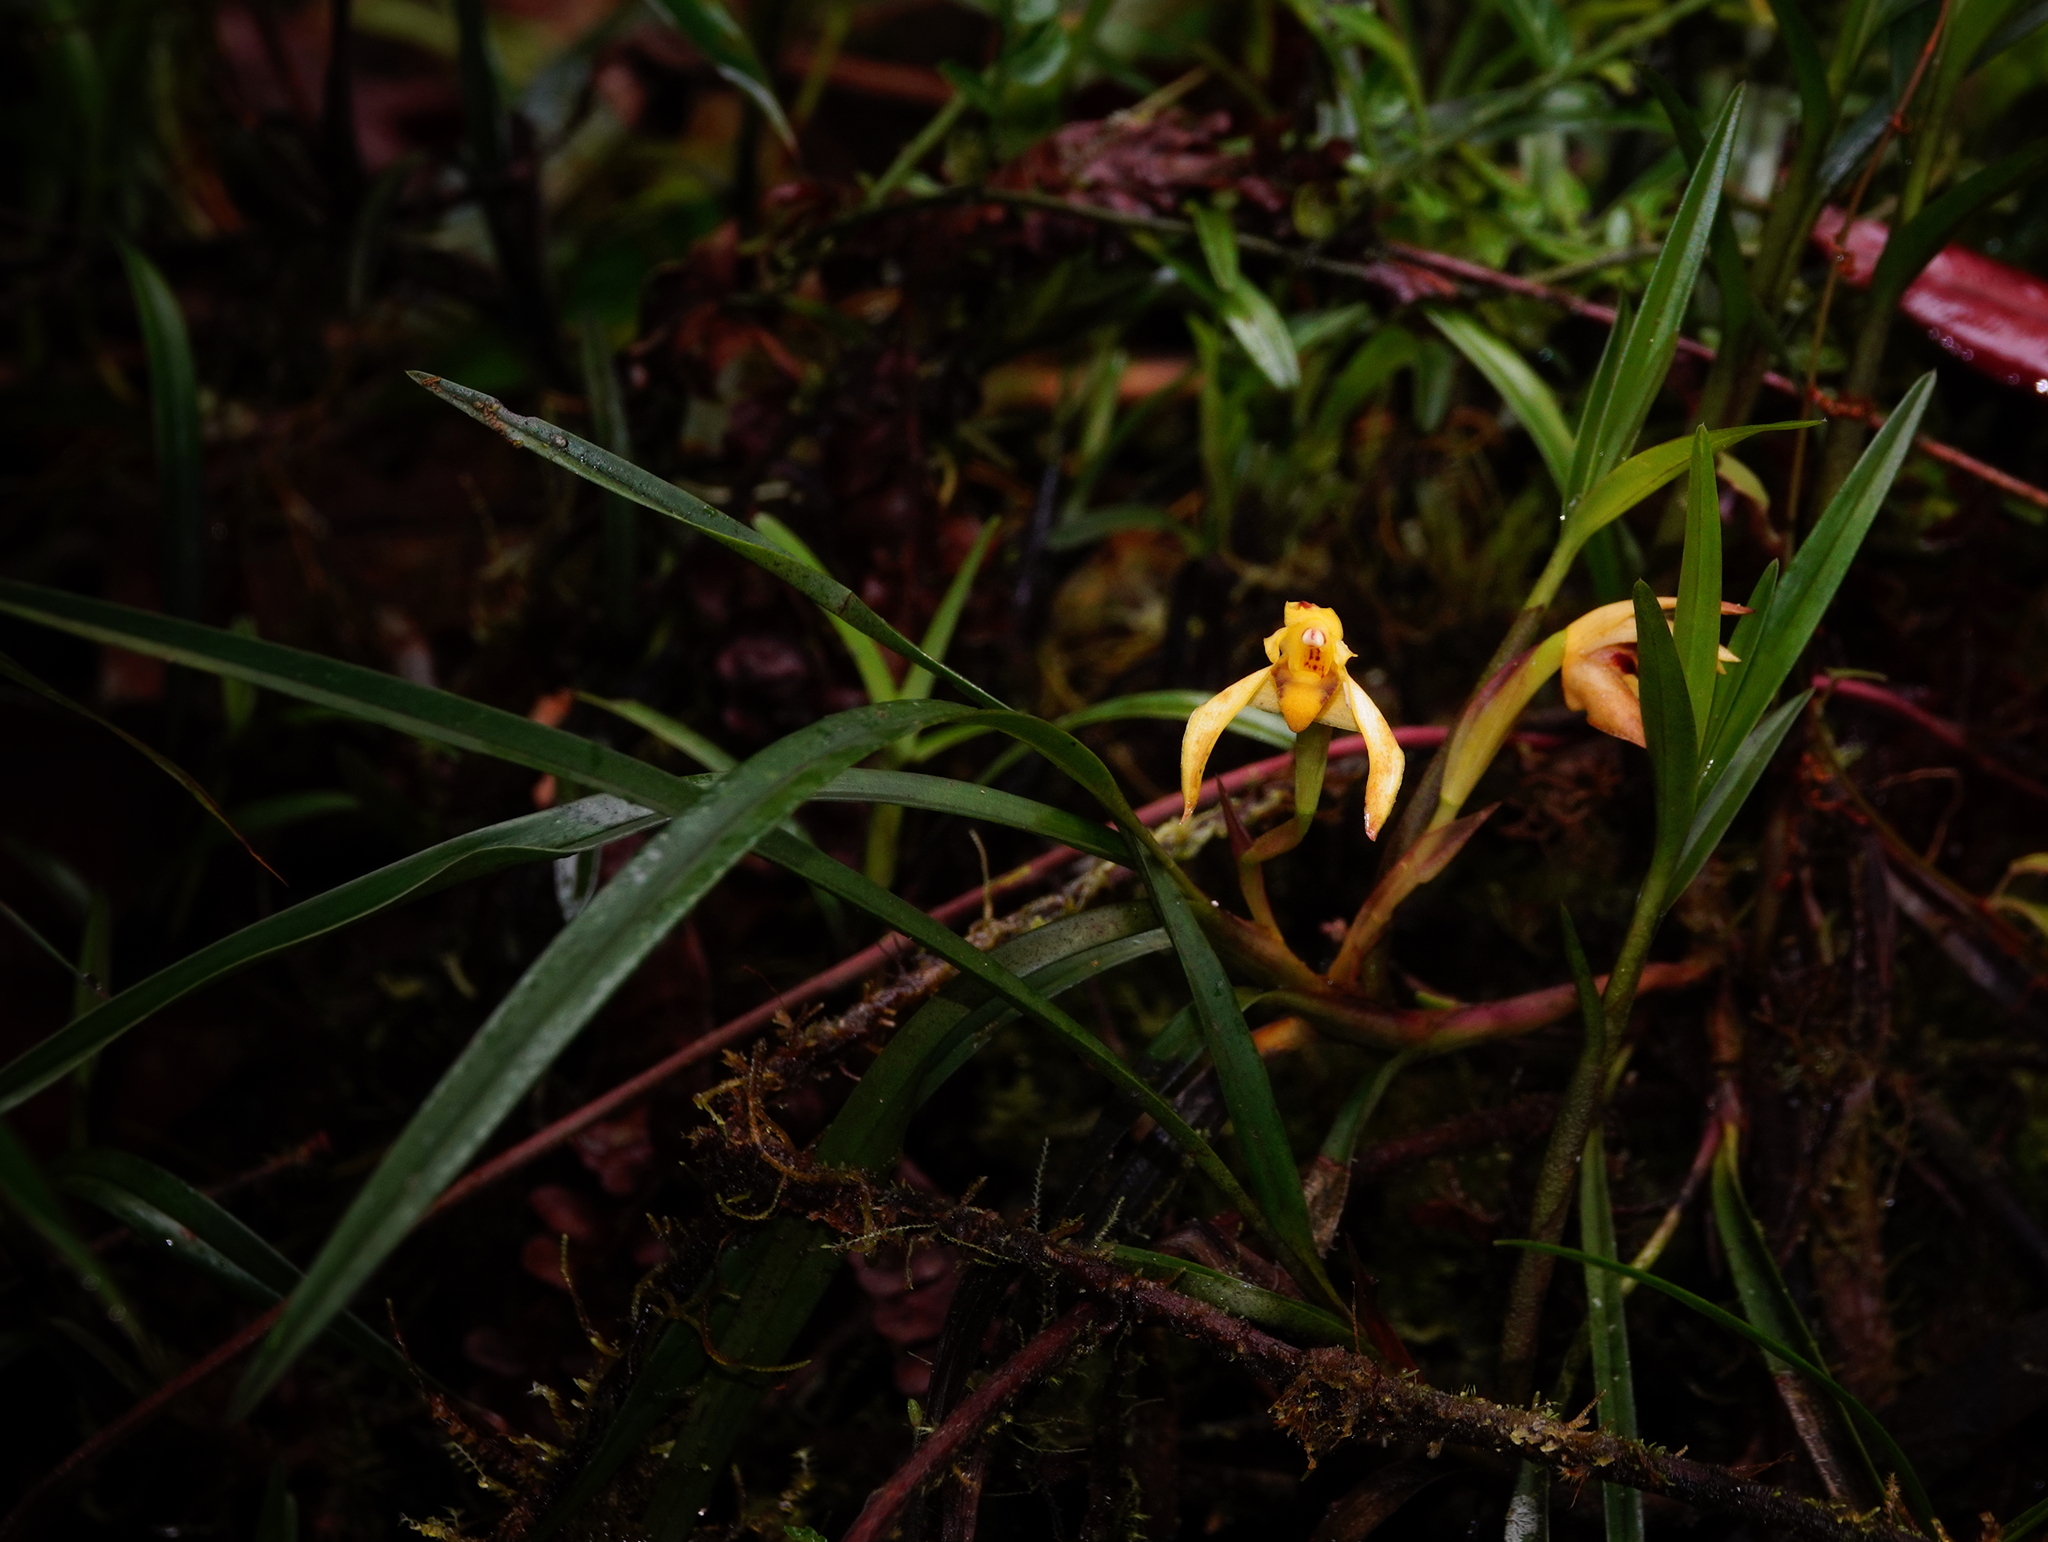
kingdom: Plantae
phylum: Tracheophyta
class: Liliopsida
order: Asparagales
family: Orchidaceae
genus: Maxillaria
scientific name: Maxillaria meridensis
